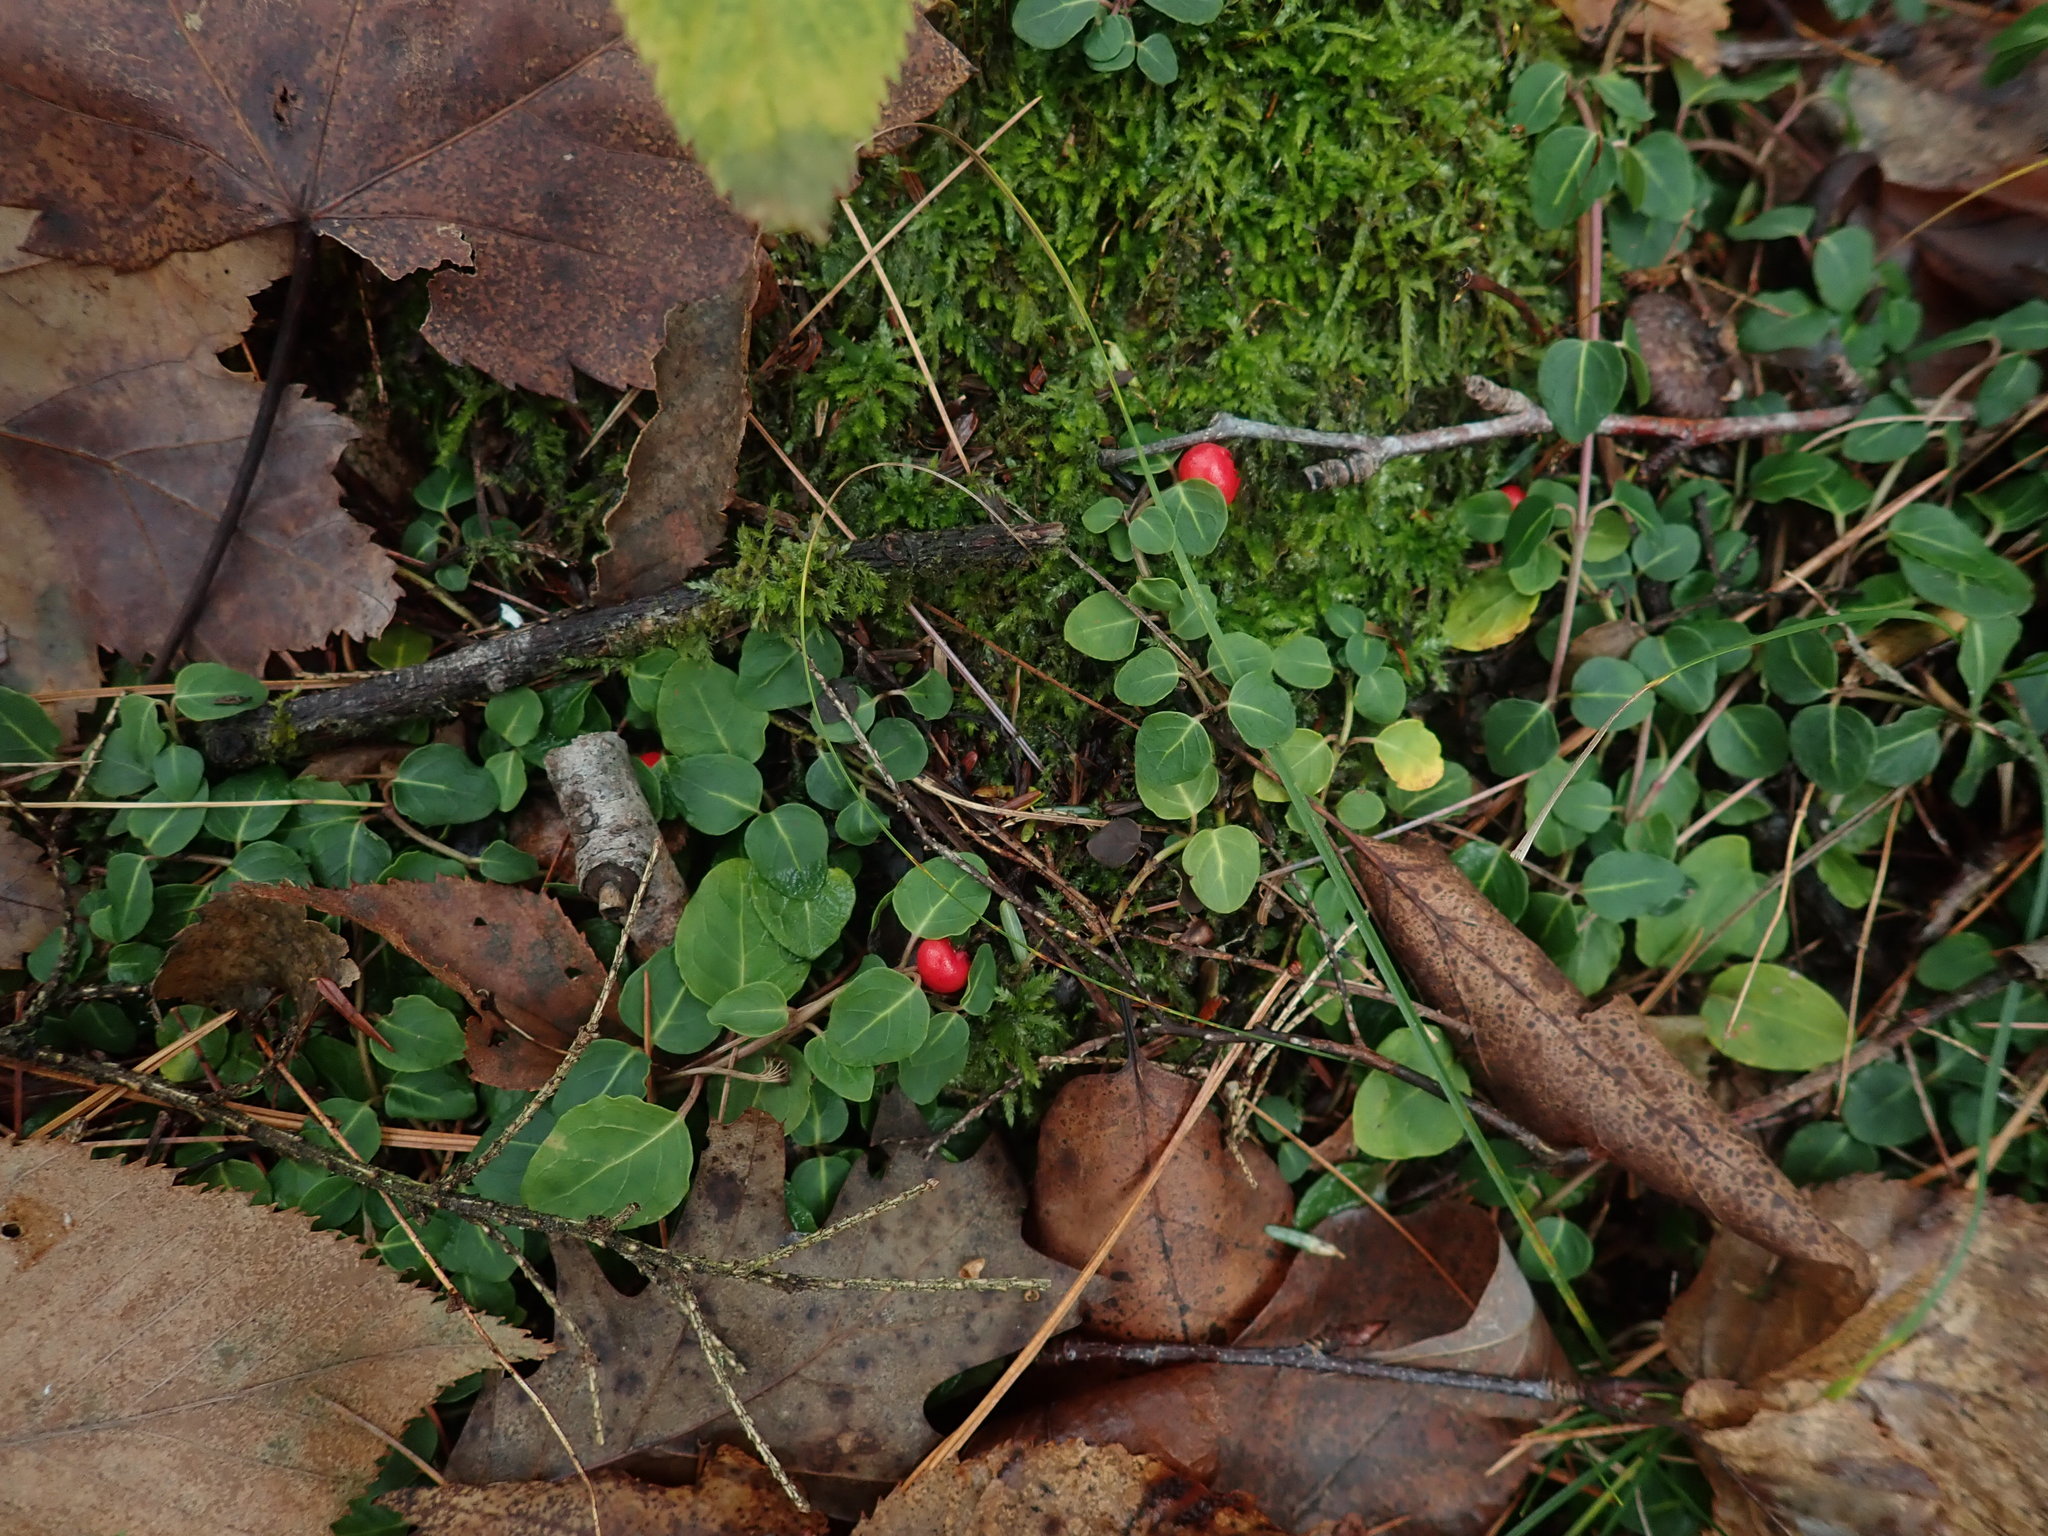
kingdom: Plantae
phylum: Tracheophyta
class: Magnoliopsida
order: Gentianales
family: Rubiaceae
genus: Mitchella
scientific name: Mitchella repens
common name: Partridge-berry
